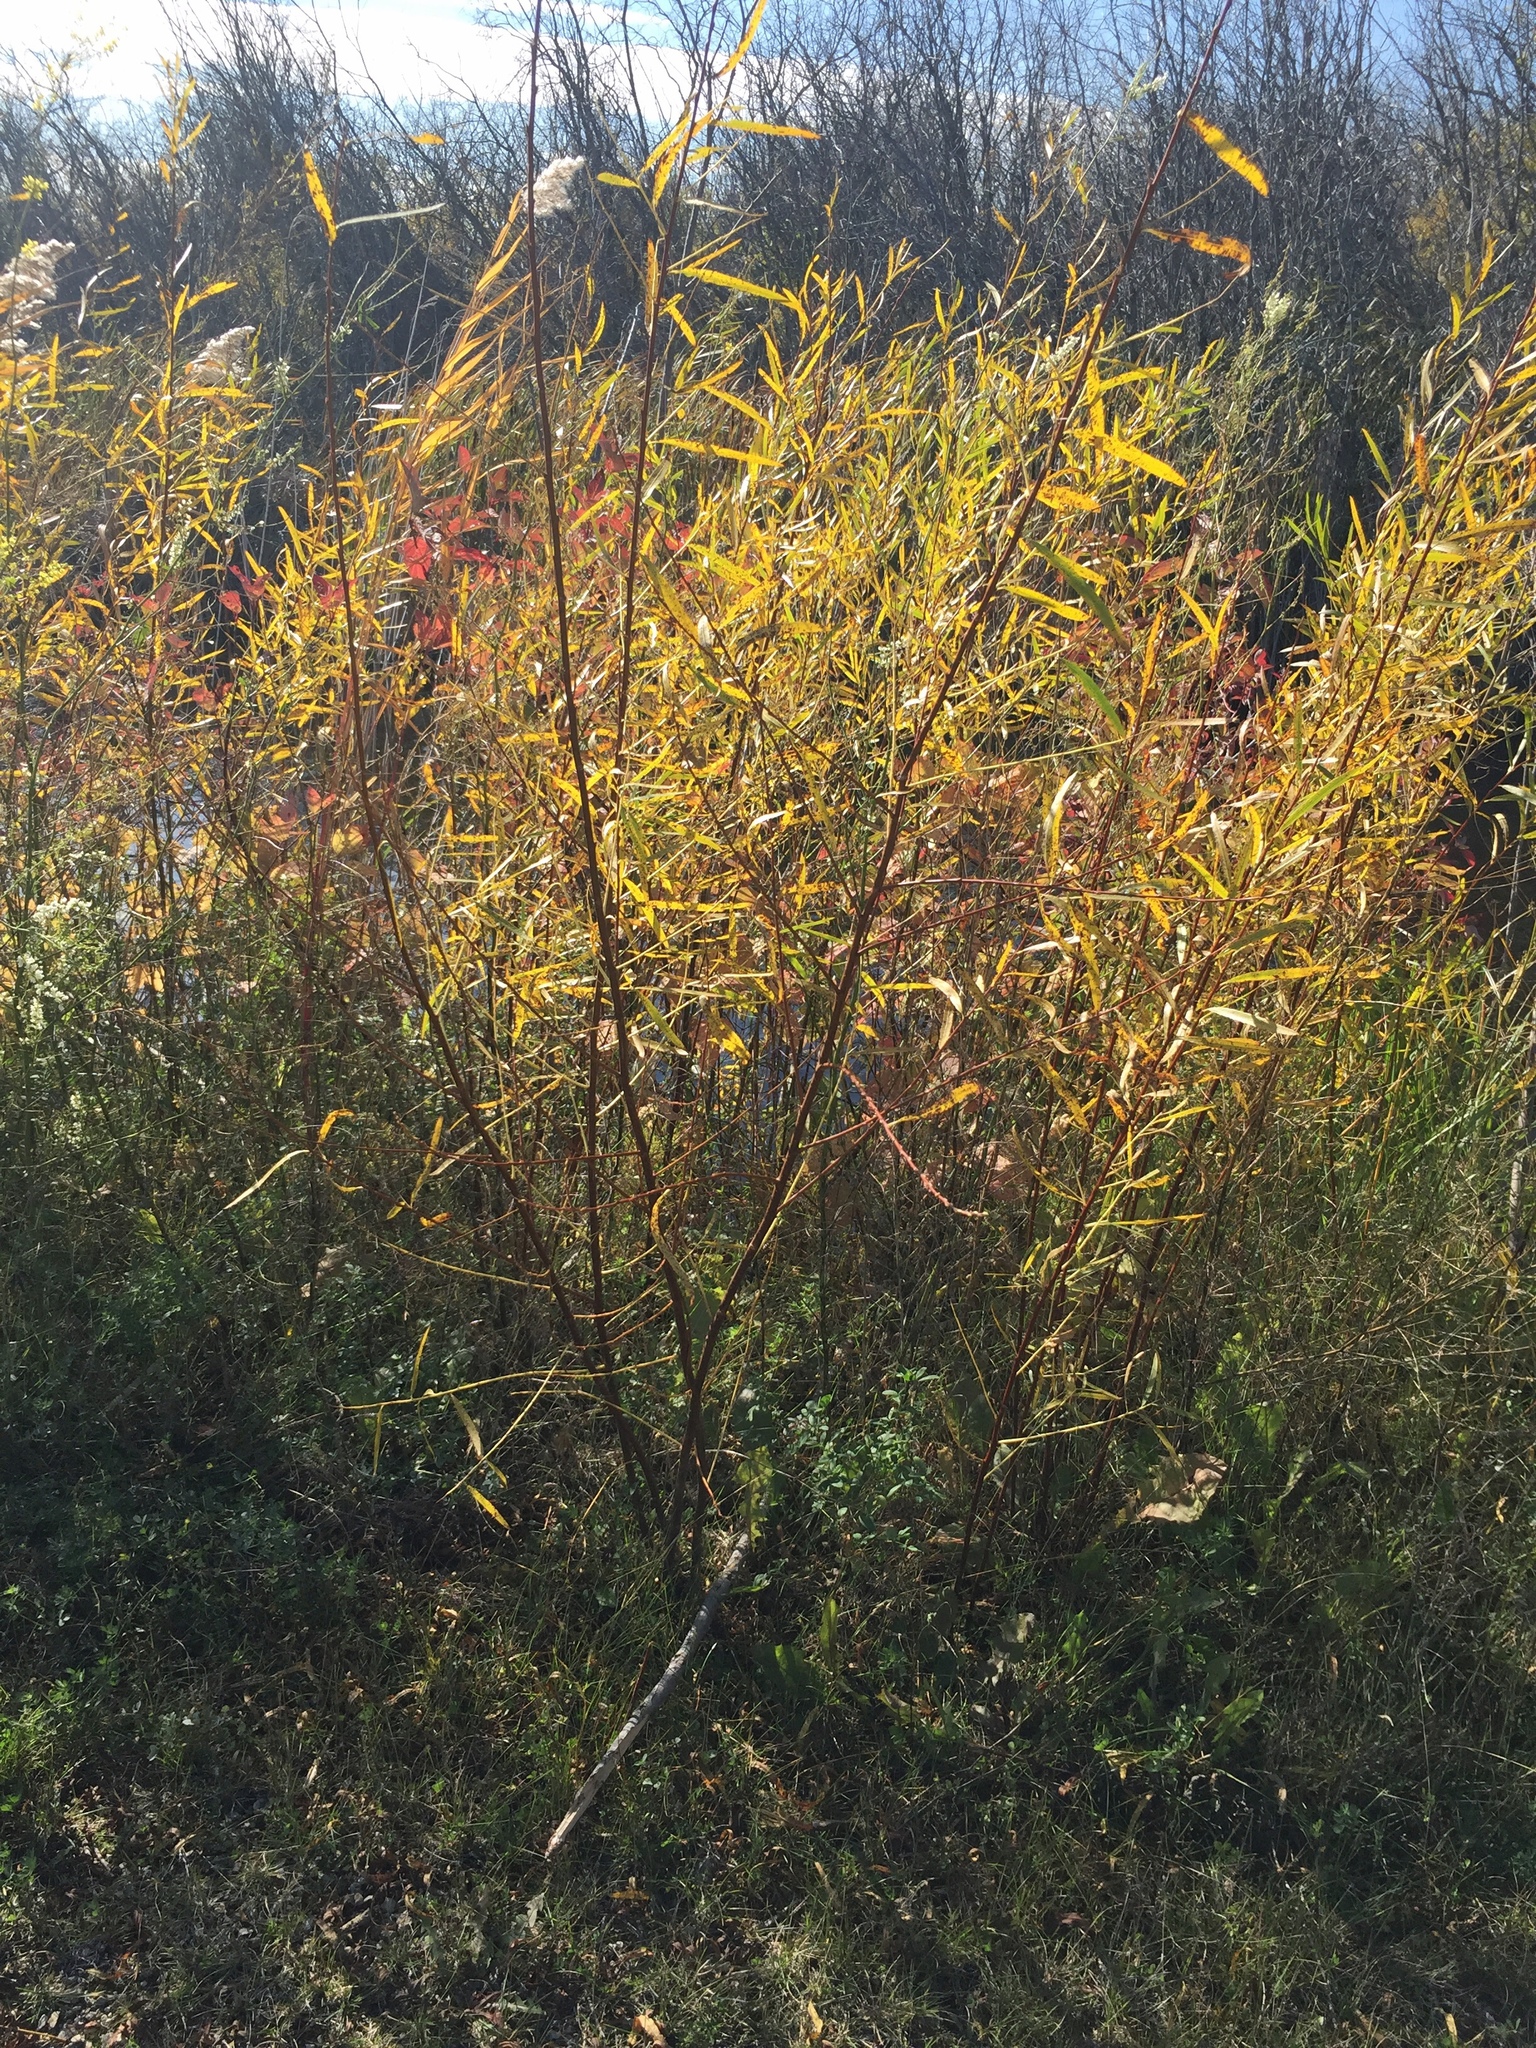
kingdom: Plantae
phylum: Tracheophyta
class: Magnoliopsida
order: Malpighiales
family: Salicaceae
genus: Salix
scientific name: Salix interior
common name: Sandbar willow
